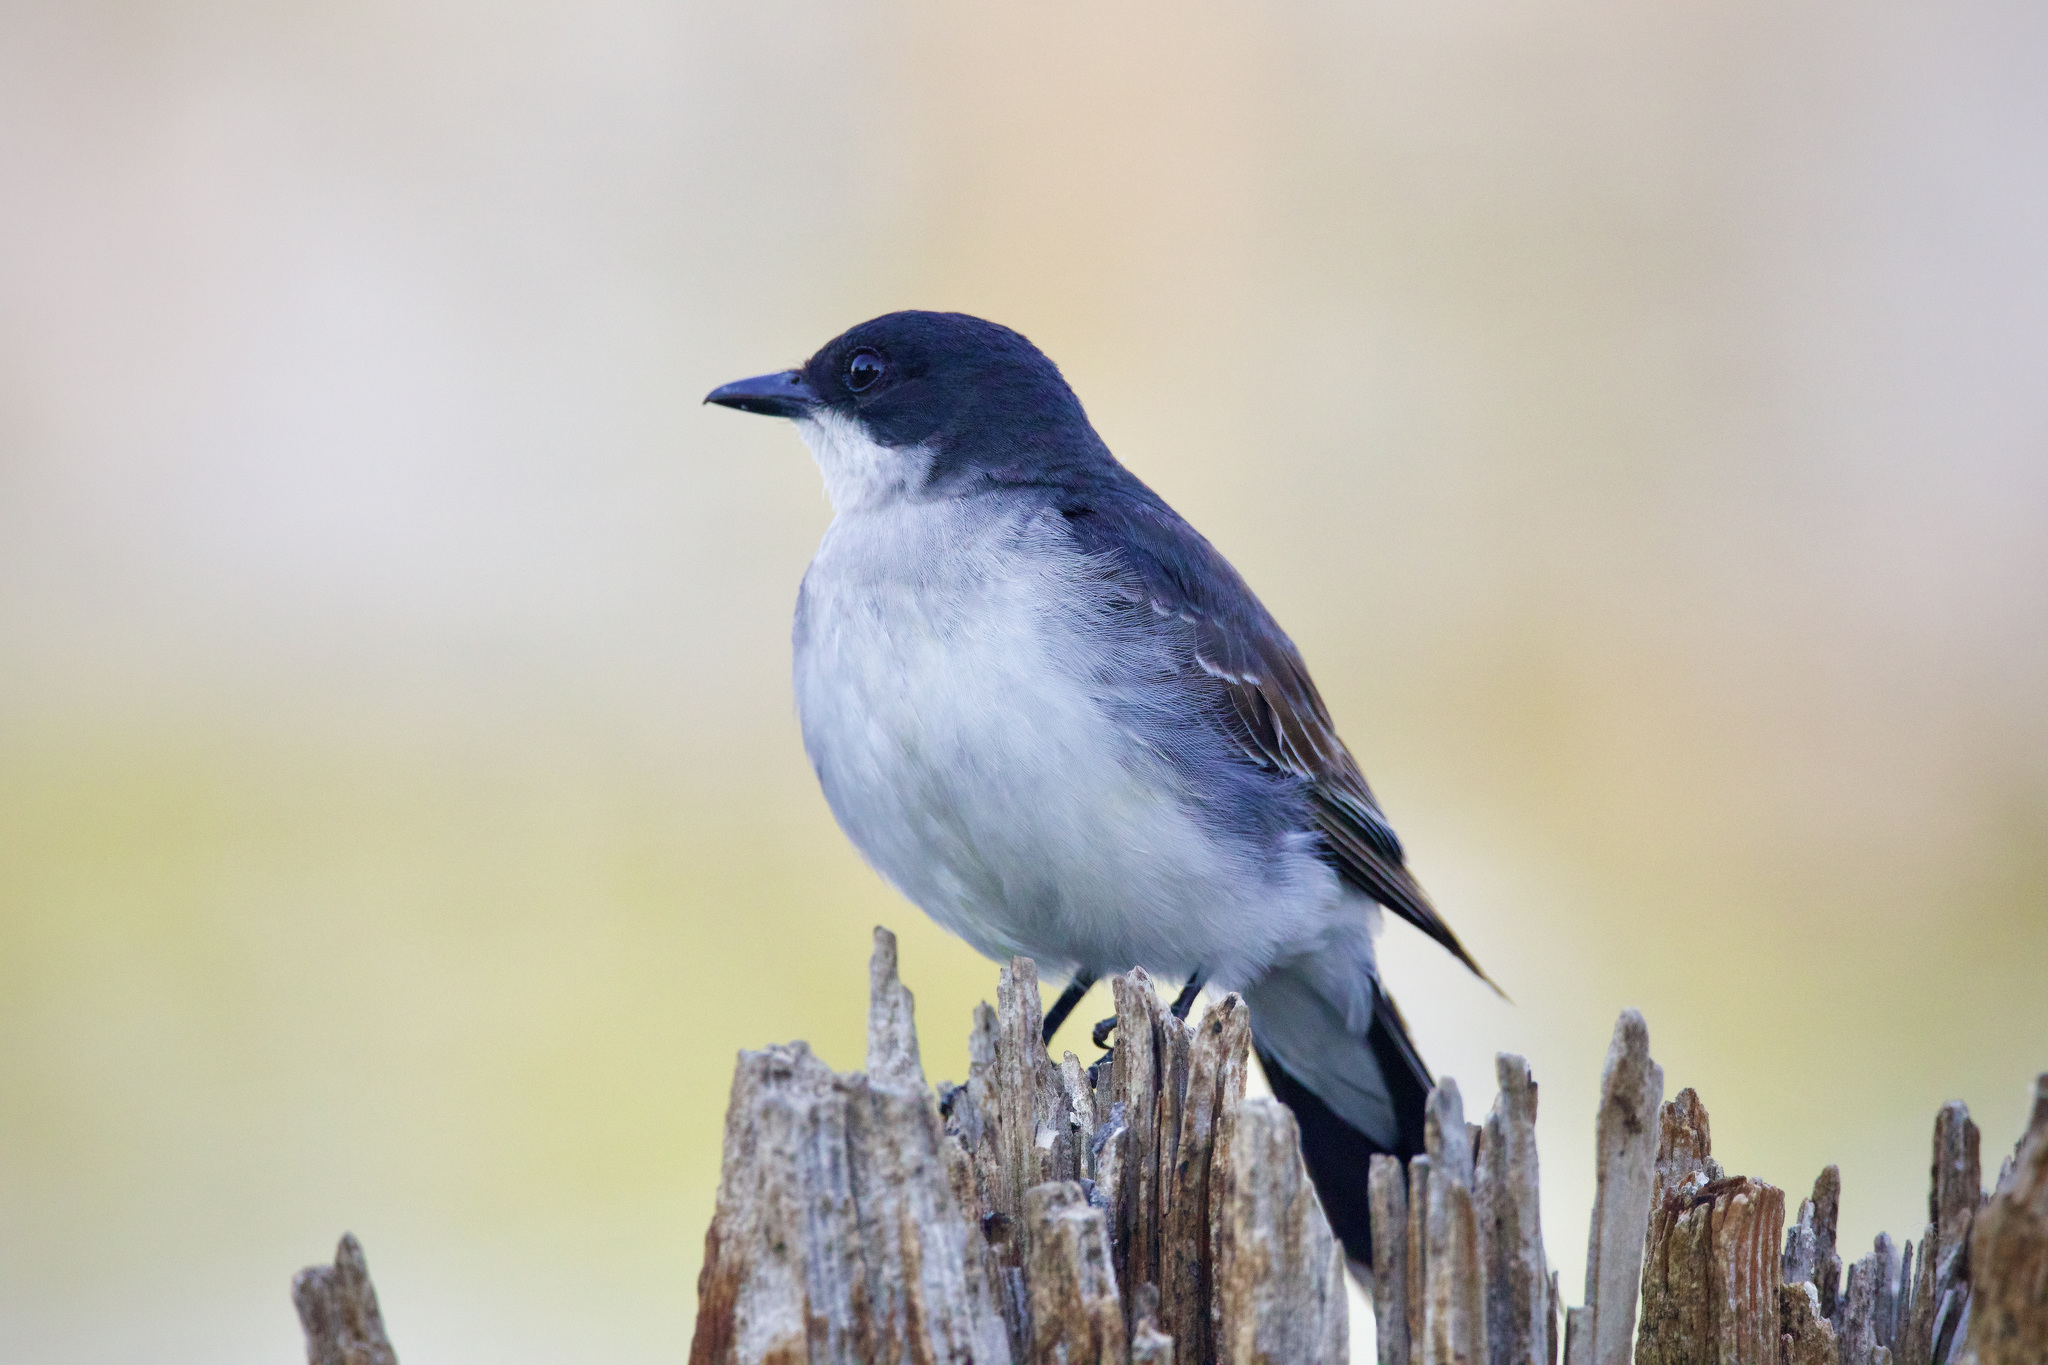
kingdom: Animalia
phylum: Chordata
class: Aves
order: Passeriformes
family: Tyrannidae
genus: Tyrannus
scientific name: Tyrannus tyrannus
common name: Eastern kingbird
